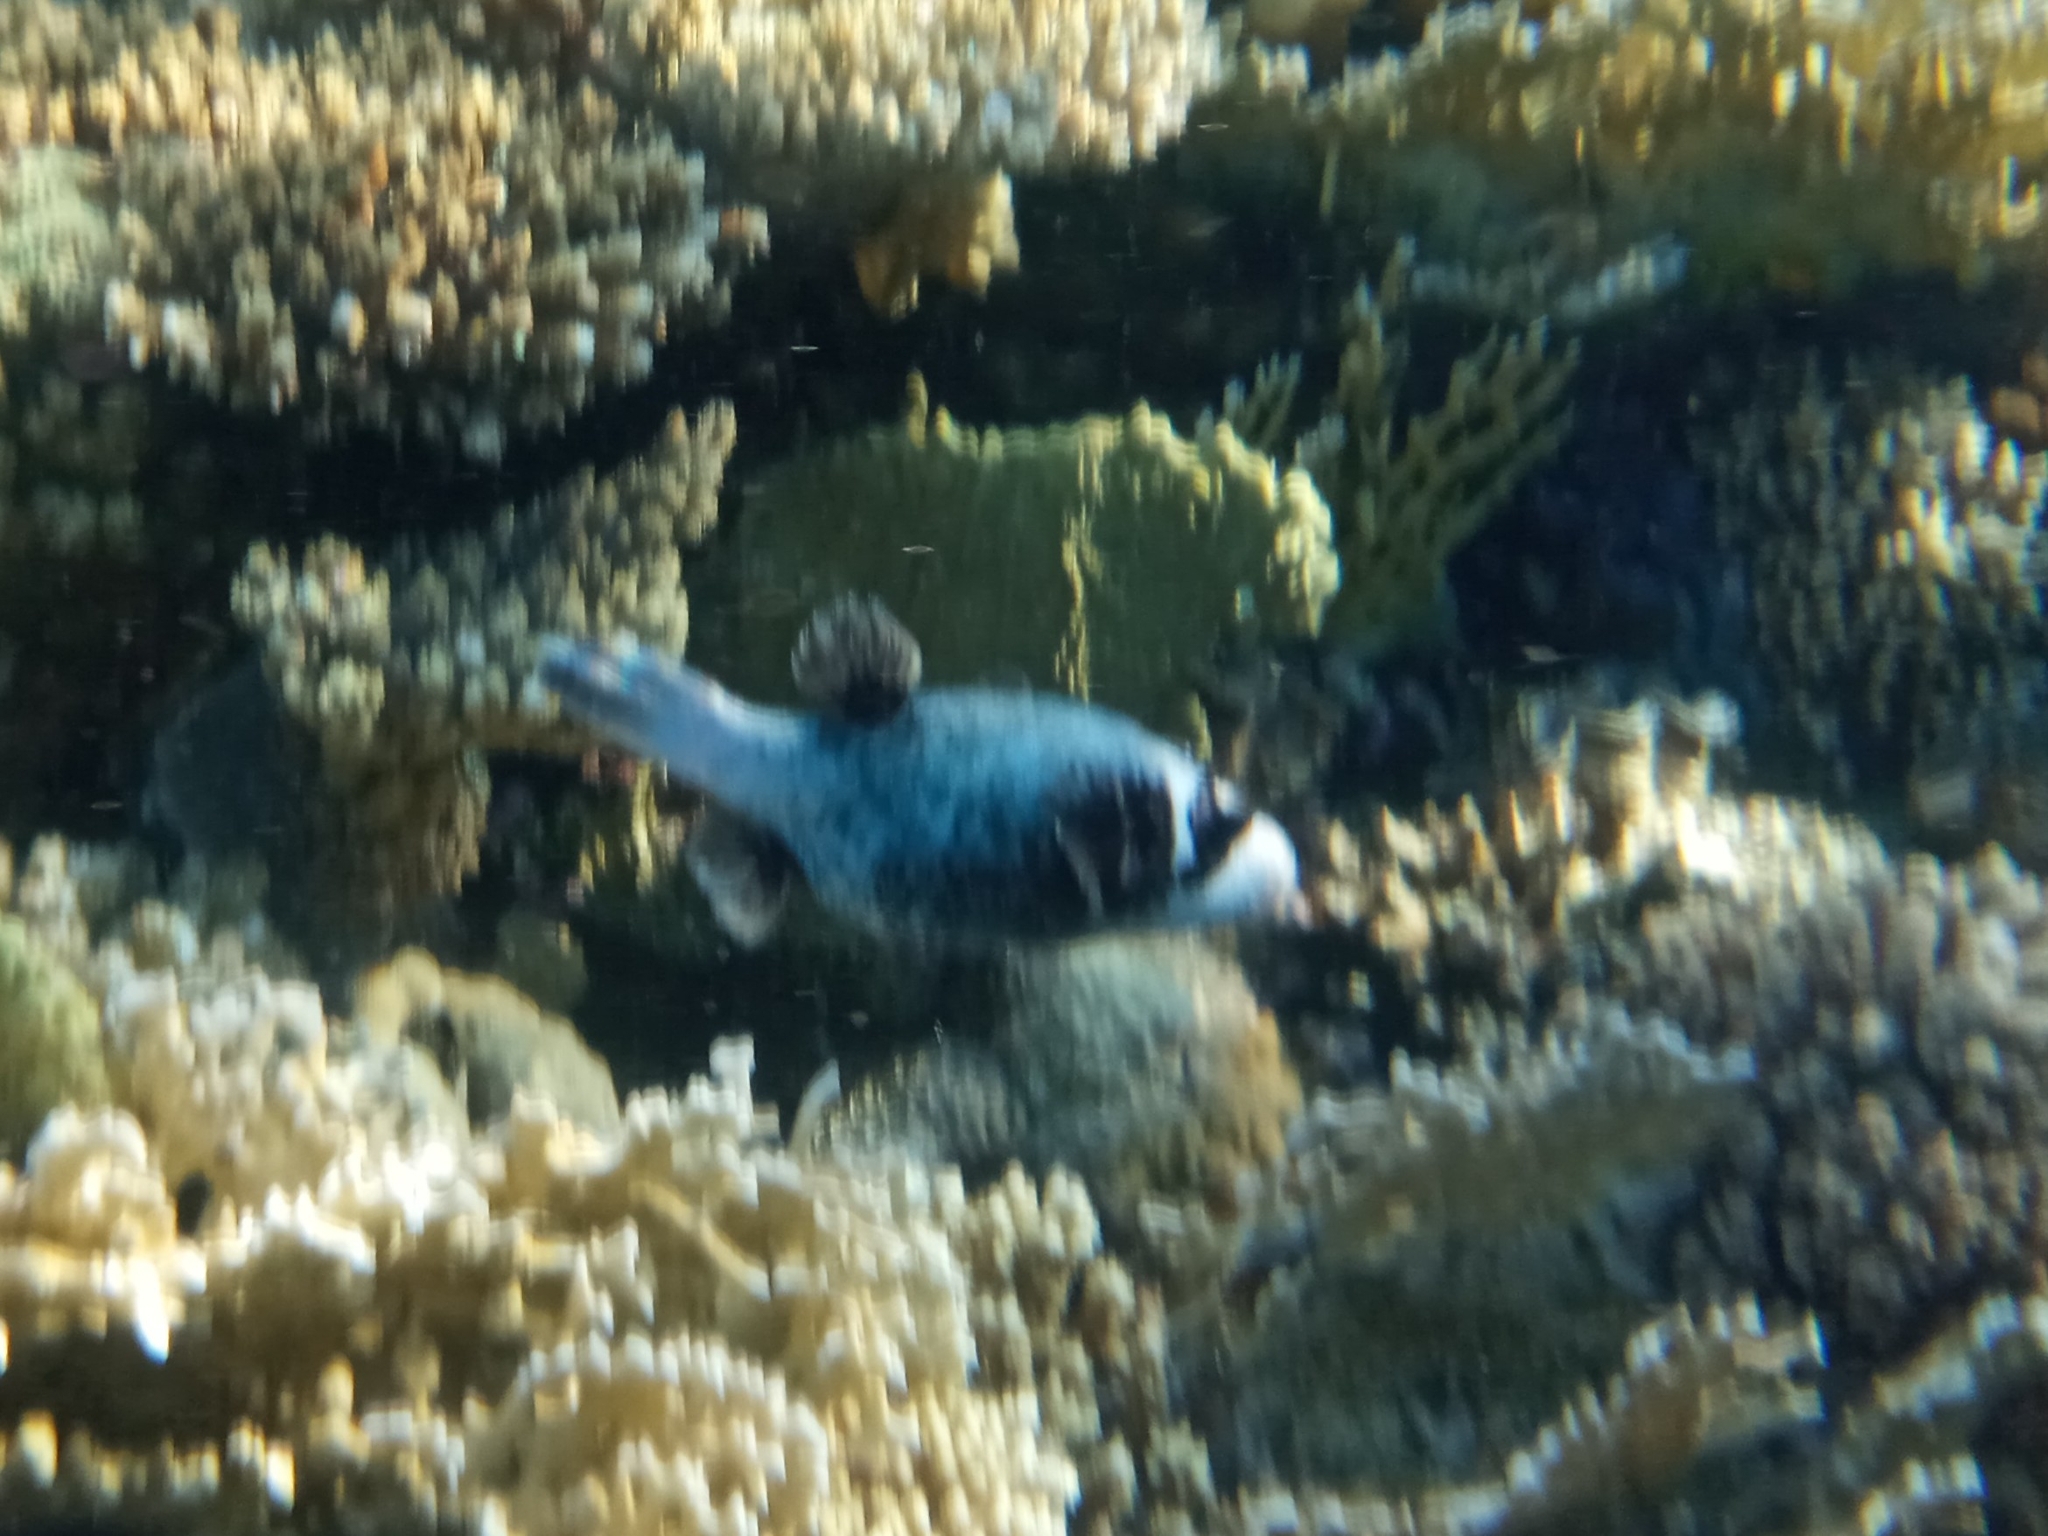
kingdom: Animalia
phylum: Chordata
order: Tetraodontiformes
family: Tetraodontidae
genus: Arothron
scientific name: Arothron diadematus
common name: Masked puffer
